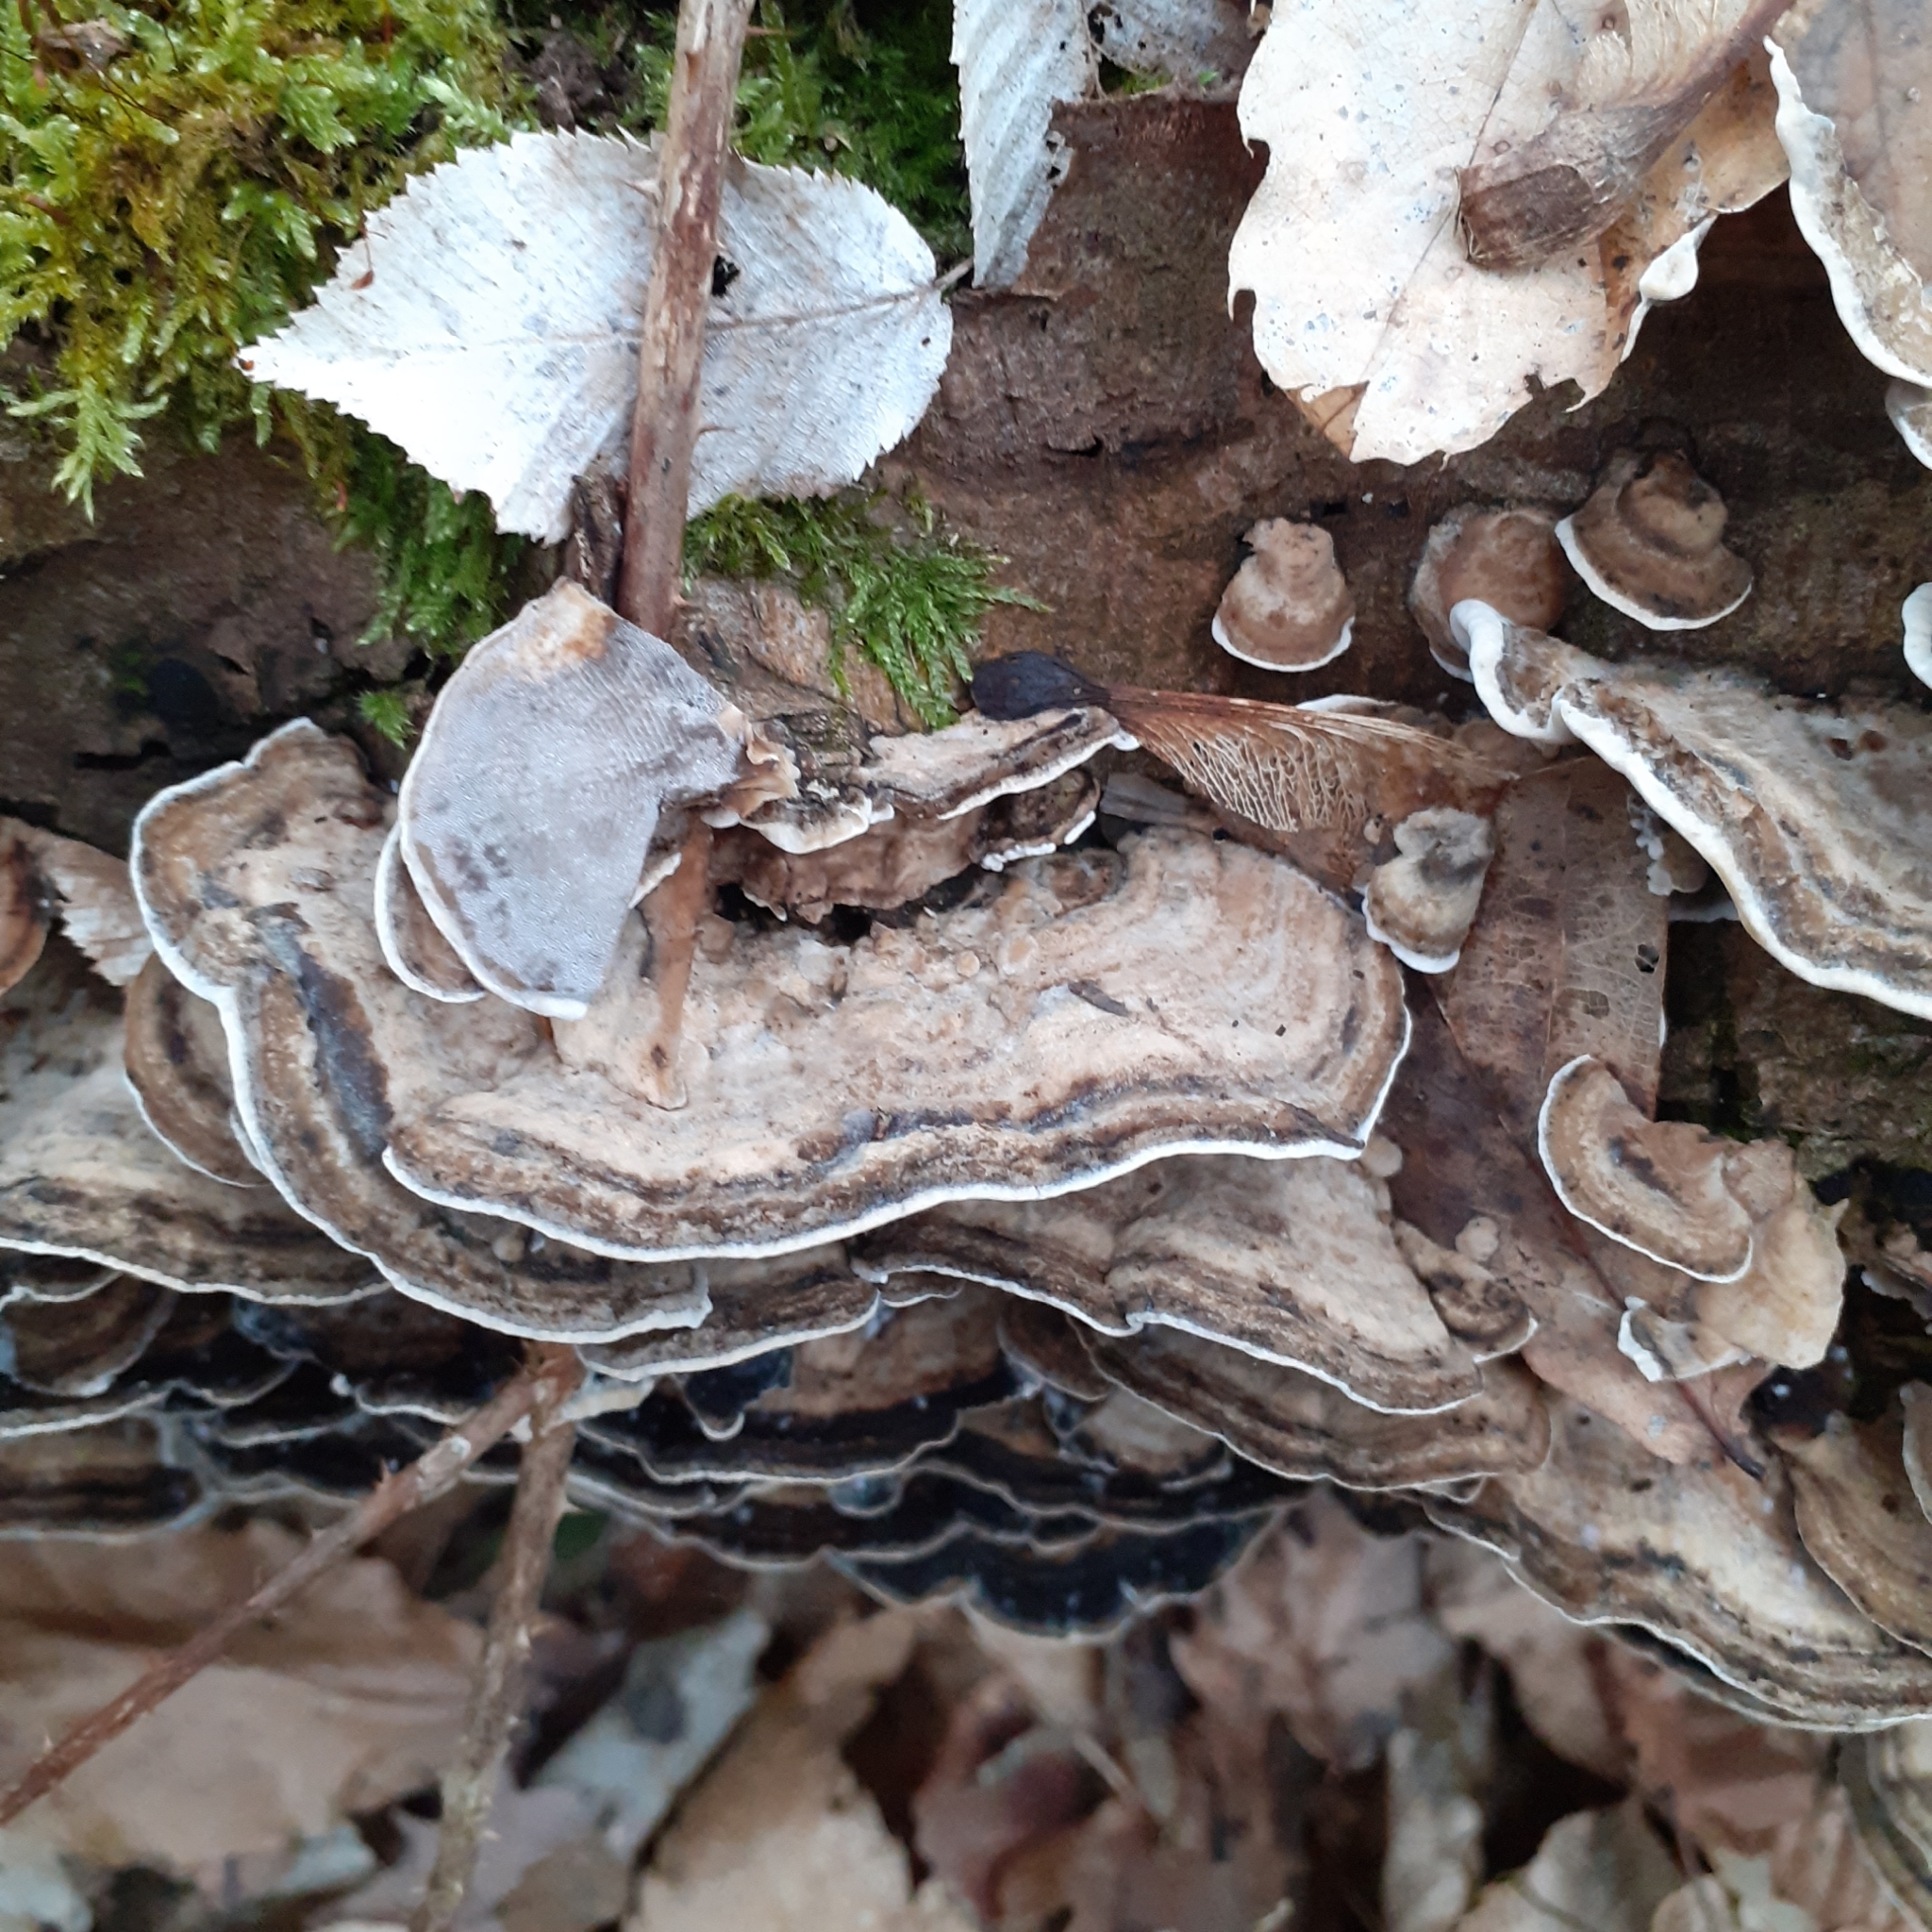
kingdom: Fungi
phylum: Basidiomycota
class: Agaricomycetes
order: Polyporales
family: Phanerochaetaceae
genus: Bjerkandera
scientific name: Bjerkandera adusta
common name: Smoky bracket
